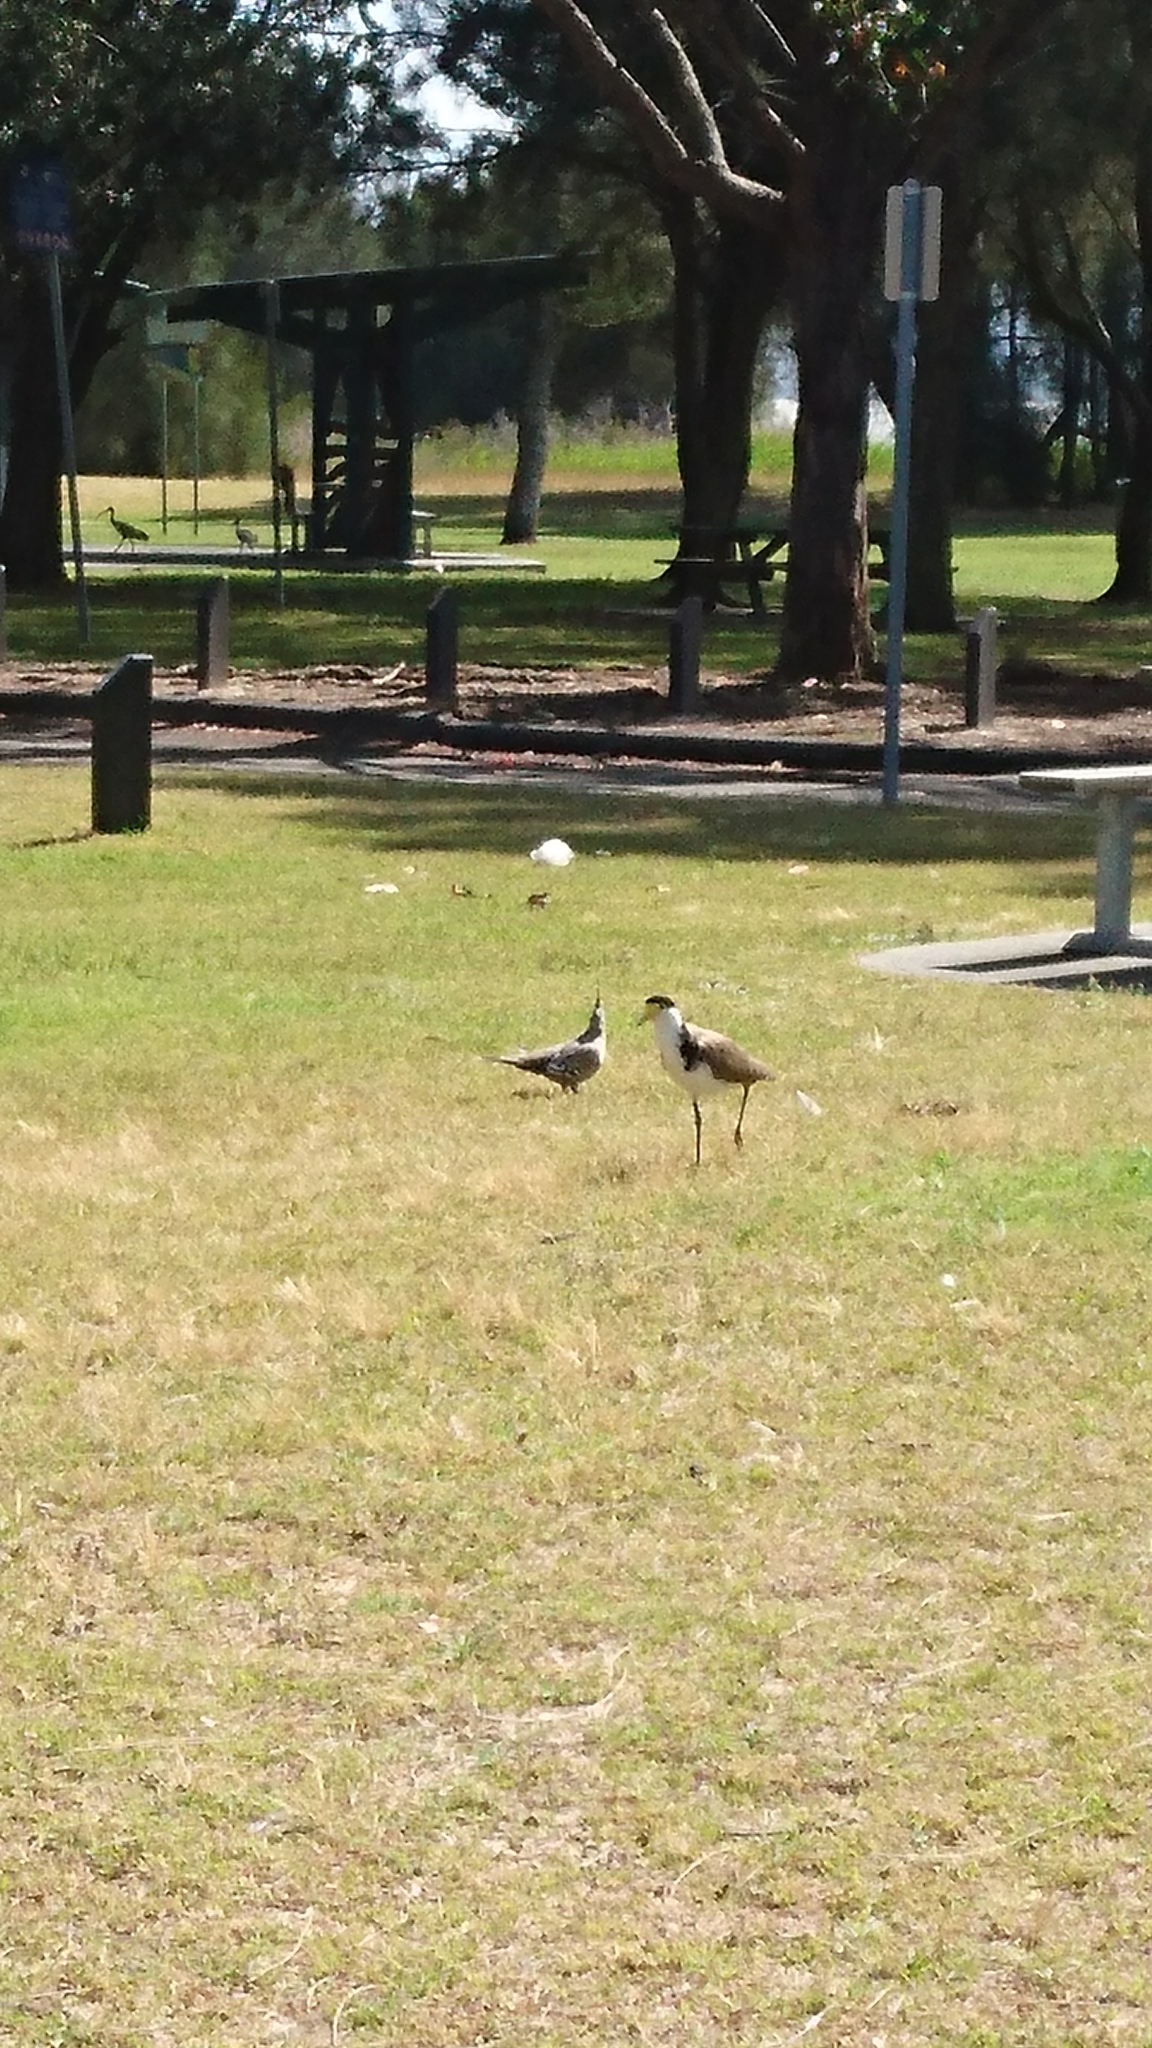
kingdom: Animalia
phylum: Chordata
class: Aves
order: Columbiformes
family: Columbidae
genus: Ocyphaps
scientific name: Ocyphaps lophotes
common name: Crested pigeon
